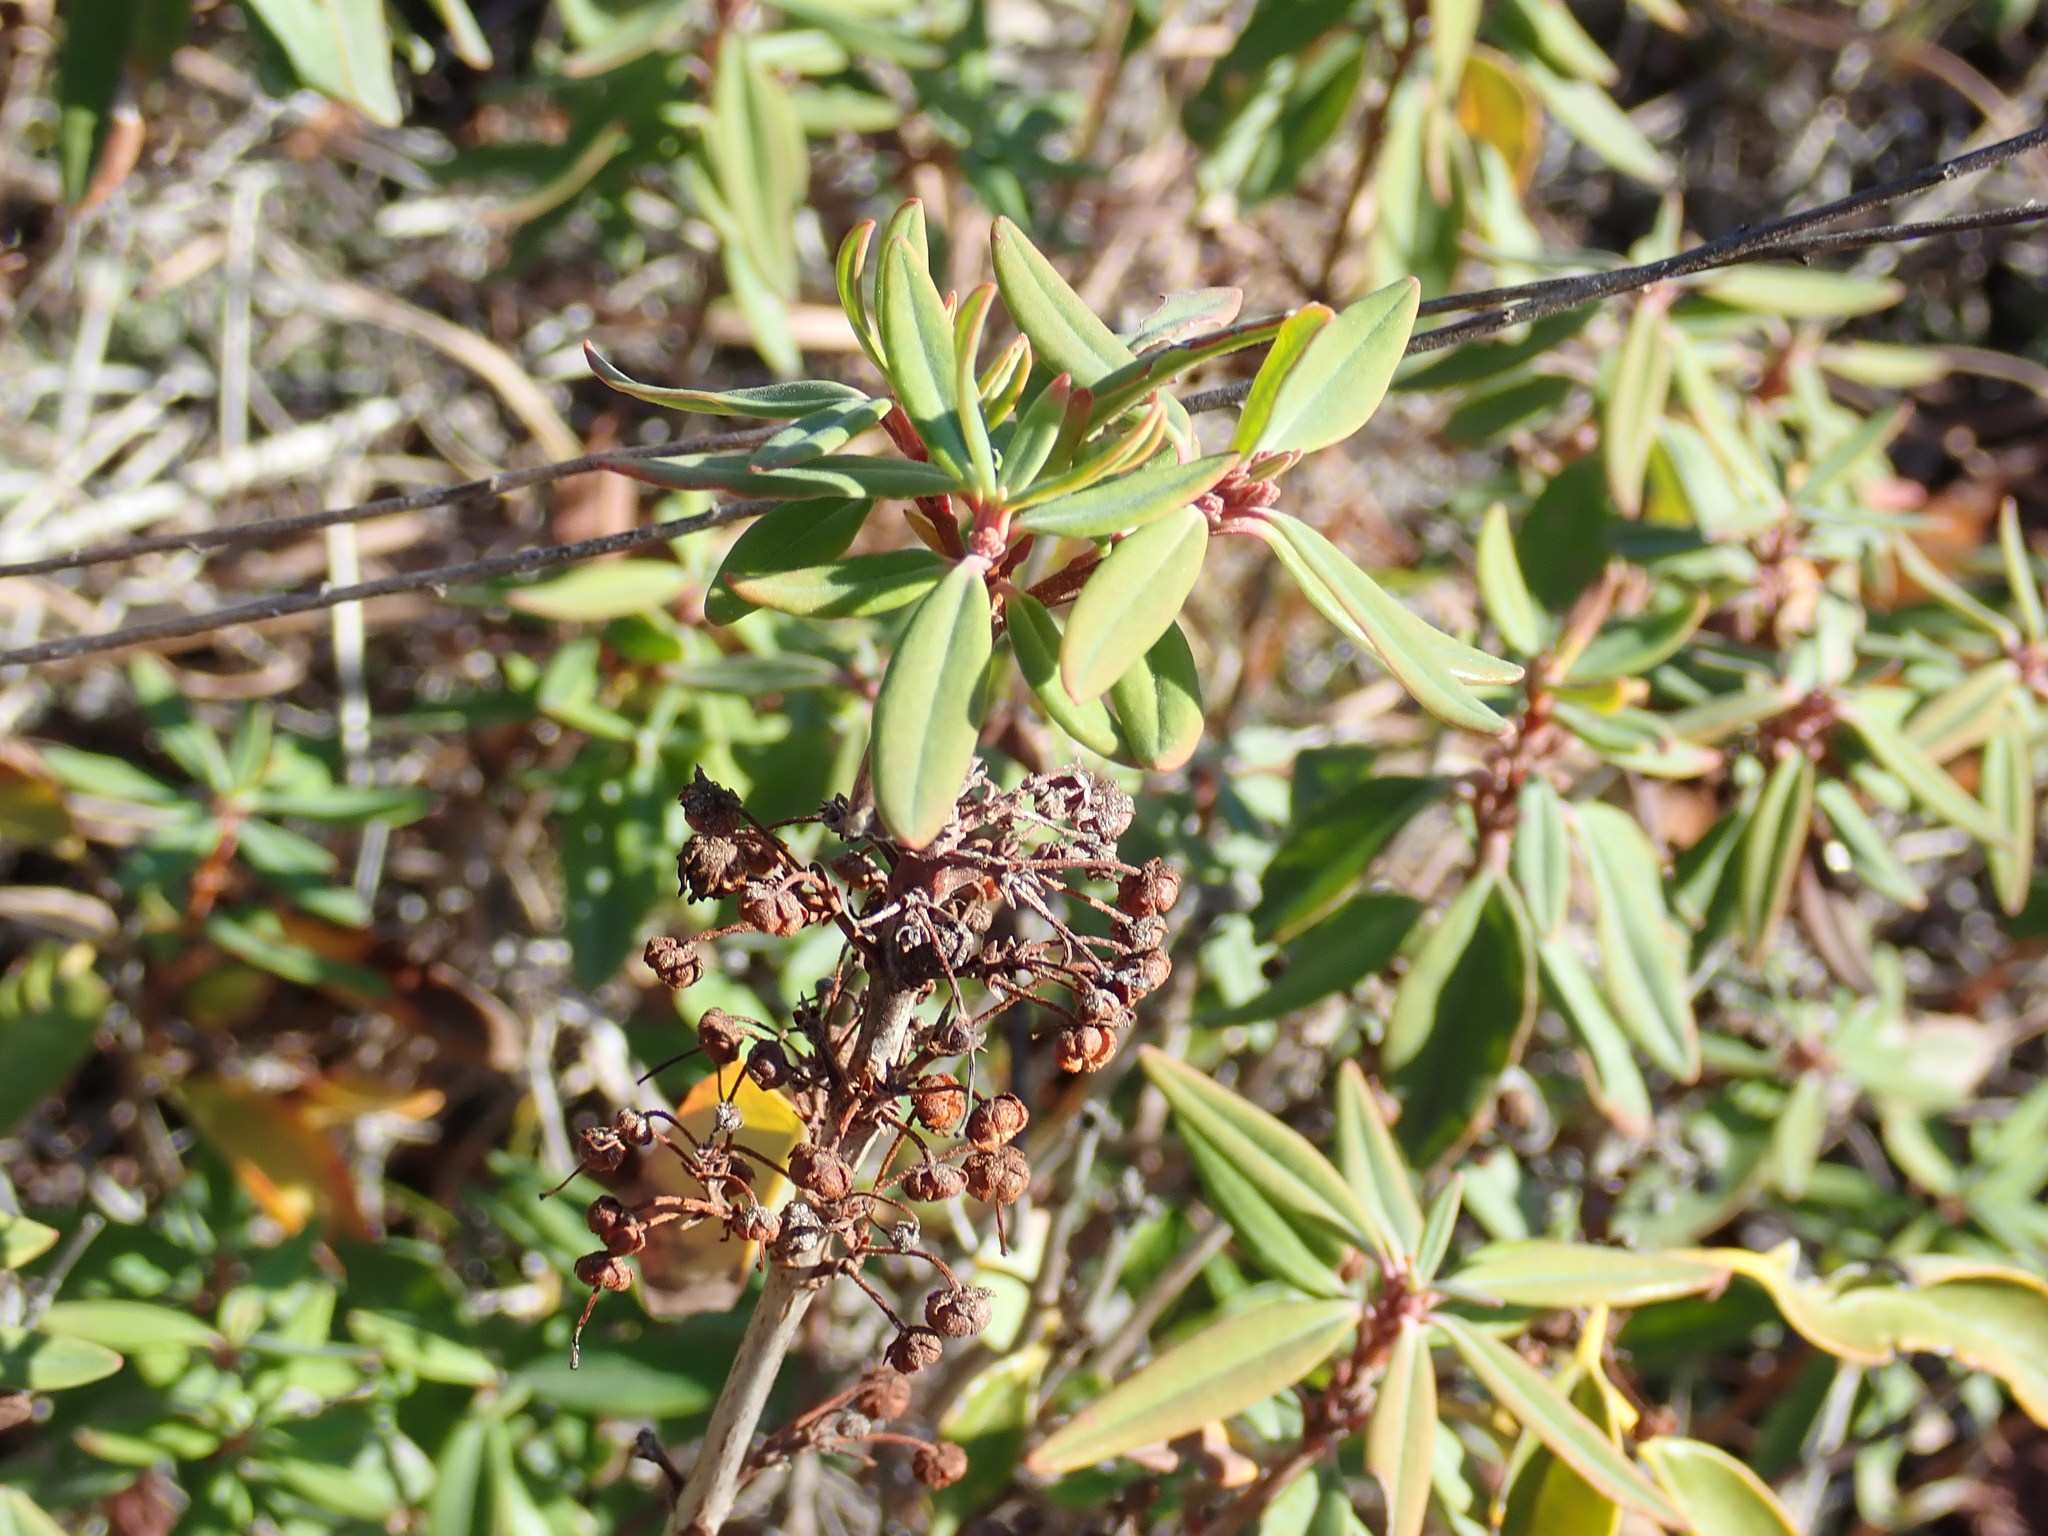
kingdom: Plantae
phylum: Tracheophyta
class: Magnoliopsida
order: Ericales
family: Ericaceae
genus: Kalmia
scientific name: Kalmia angustifolia
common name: Sheep-laurel
